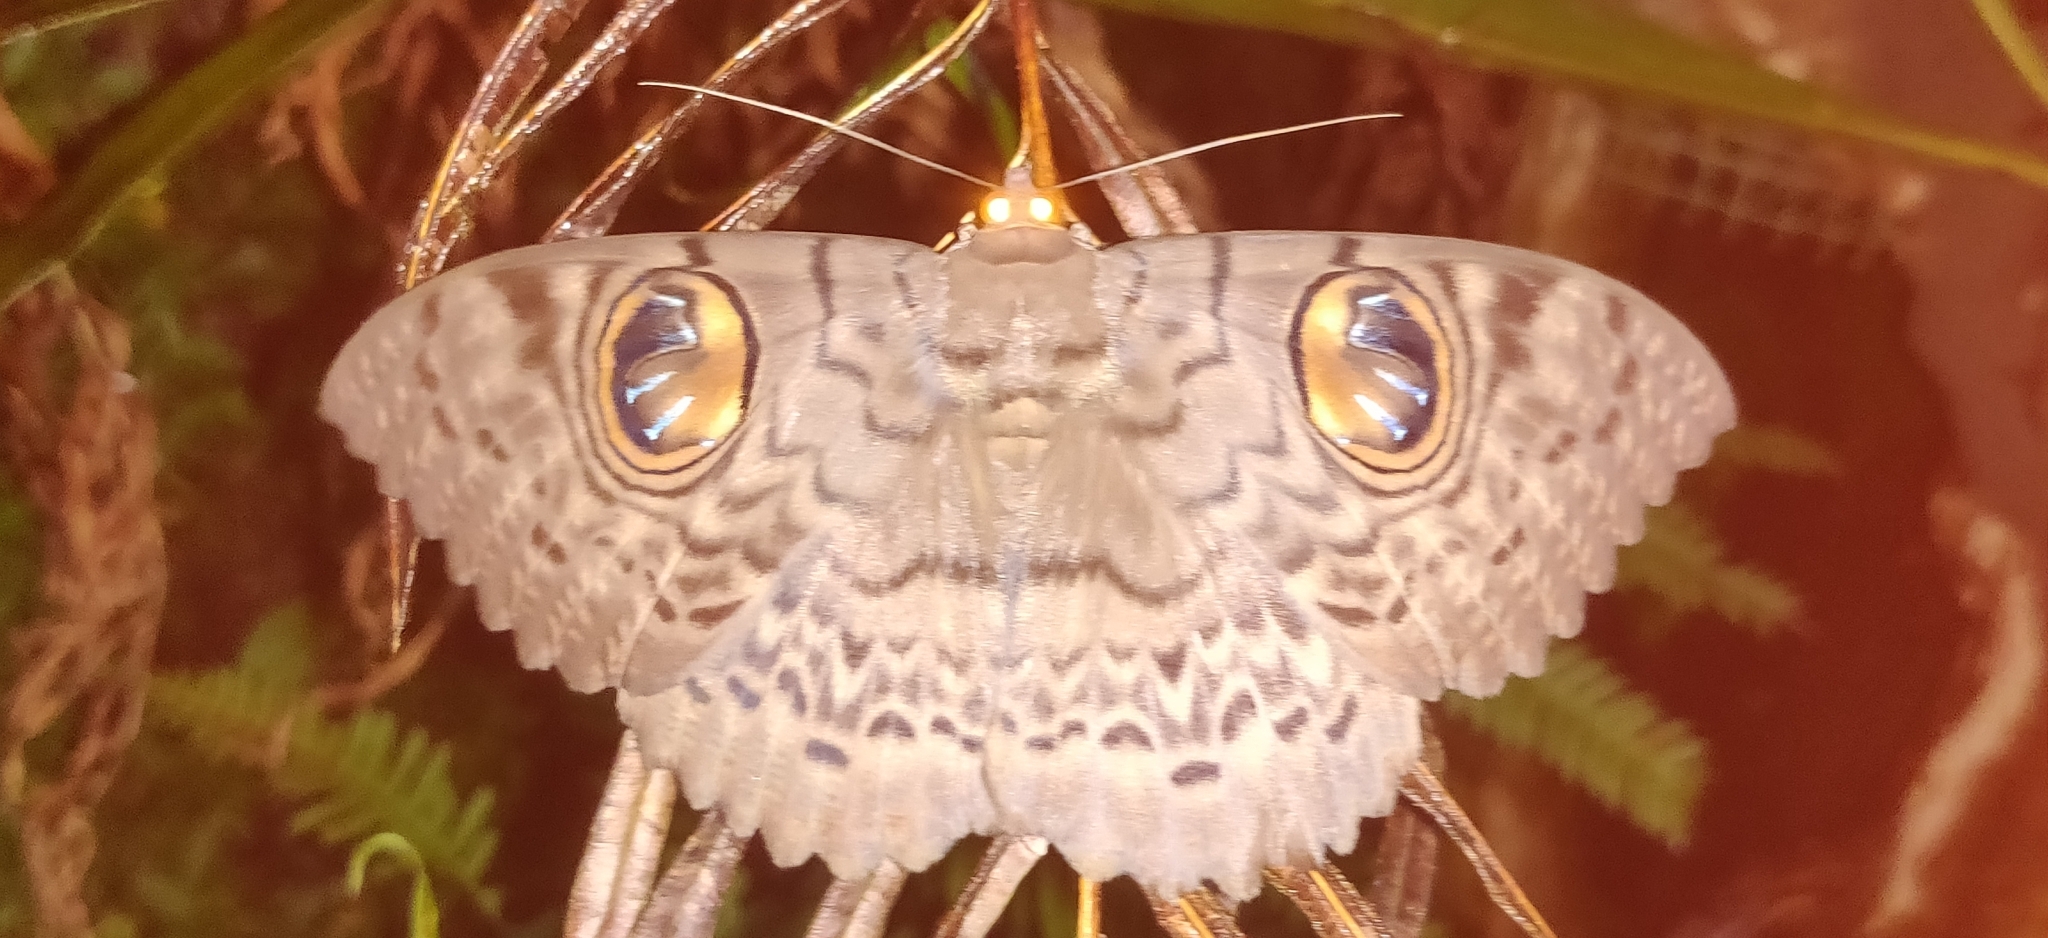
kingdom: Animalia
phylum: Arthropoda
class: Insecta
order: Lepidoptera
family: Erebidae
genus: Erebus
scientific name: Erebus macrops
